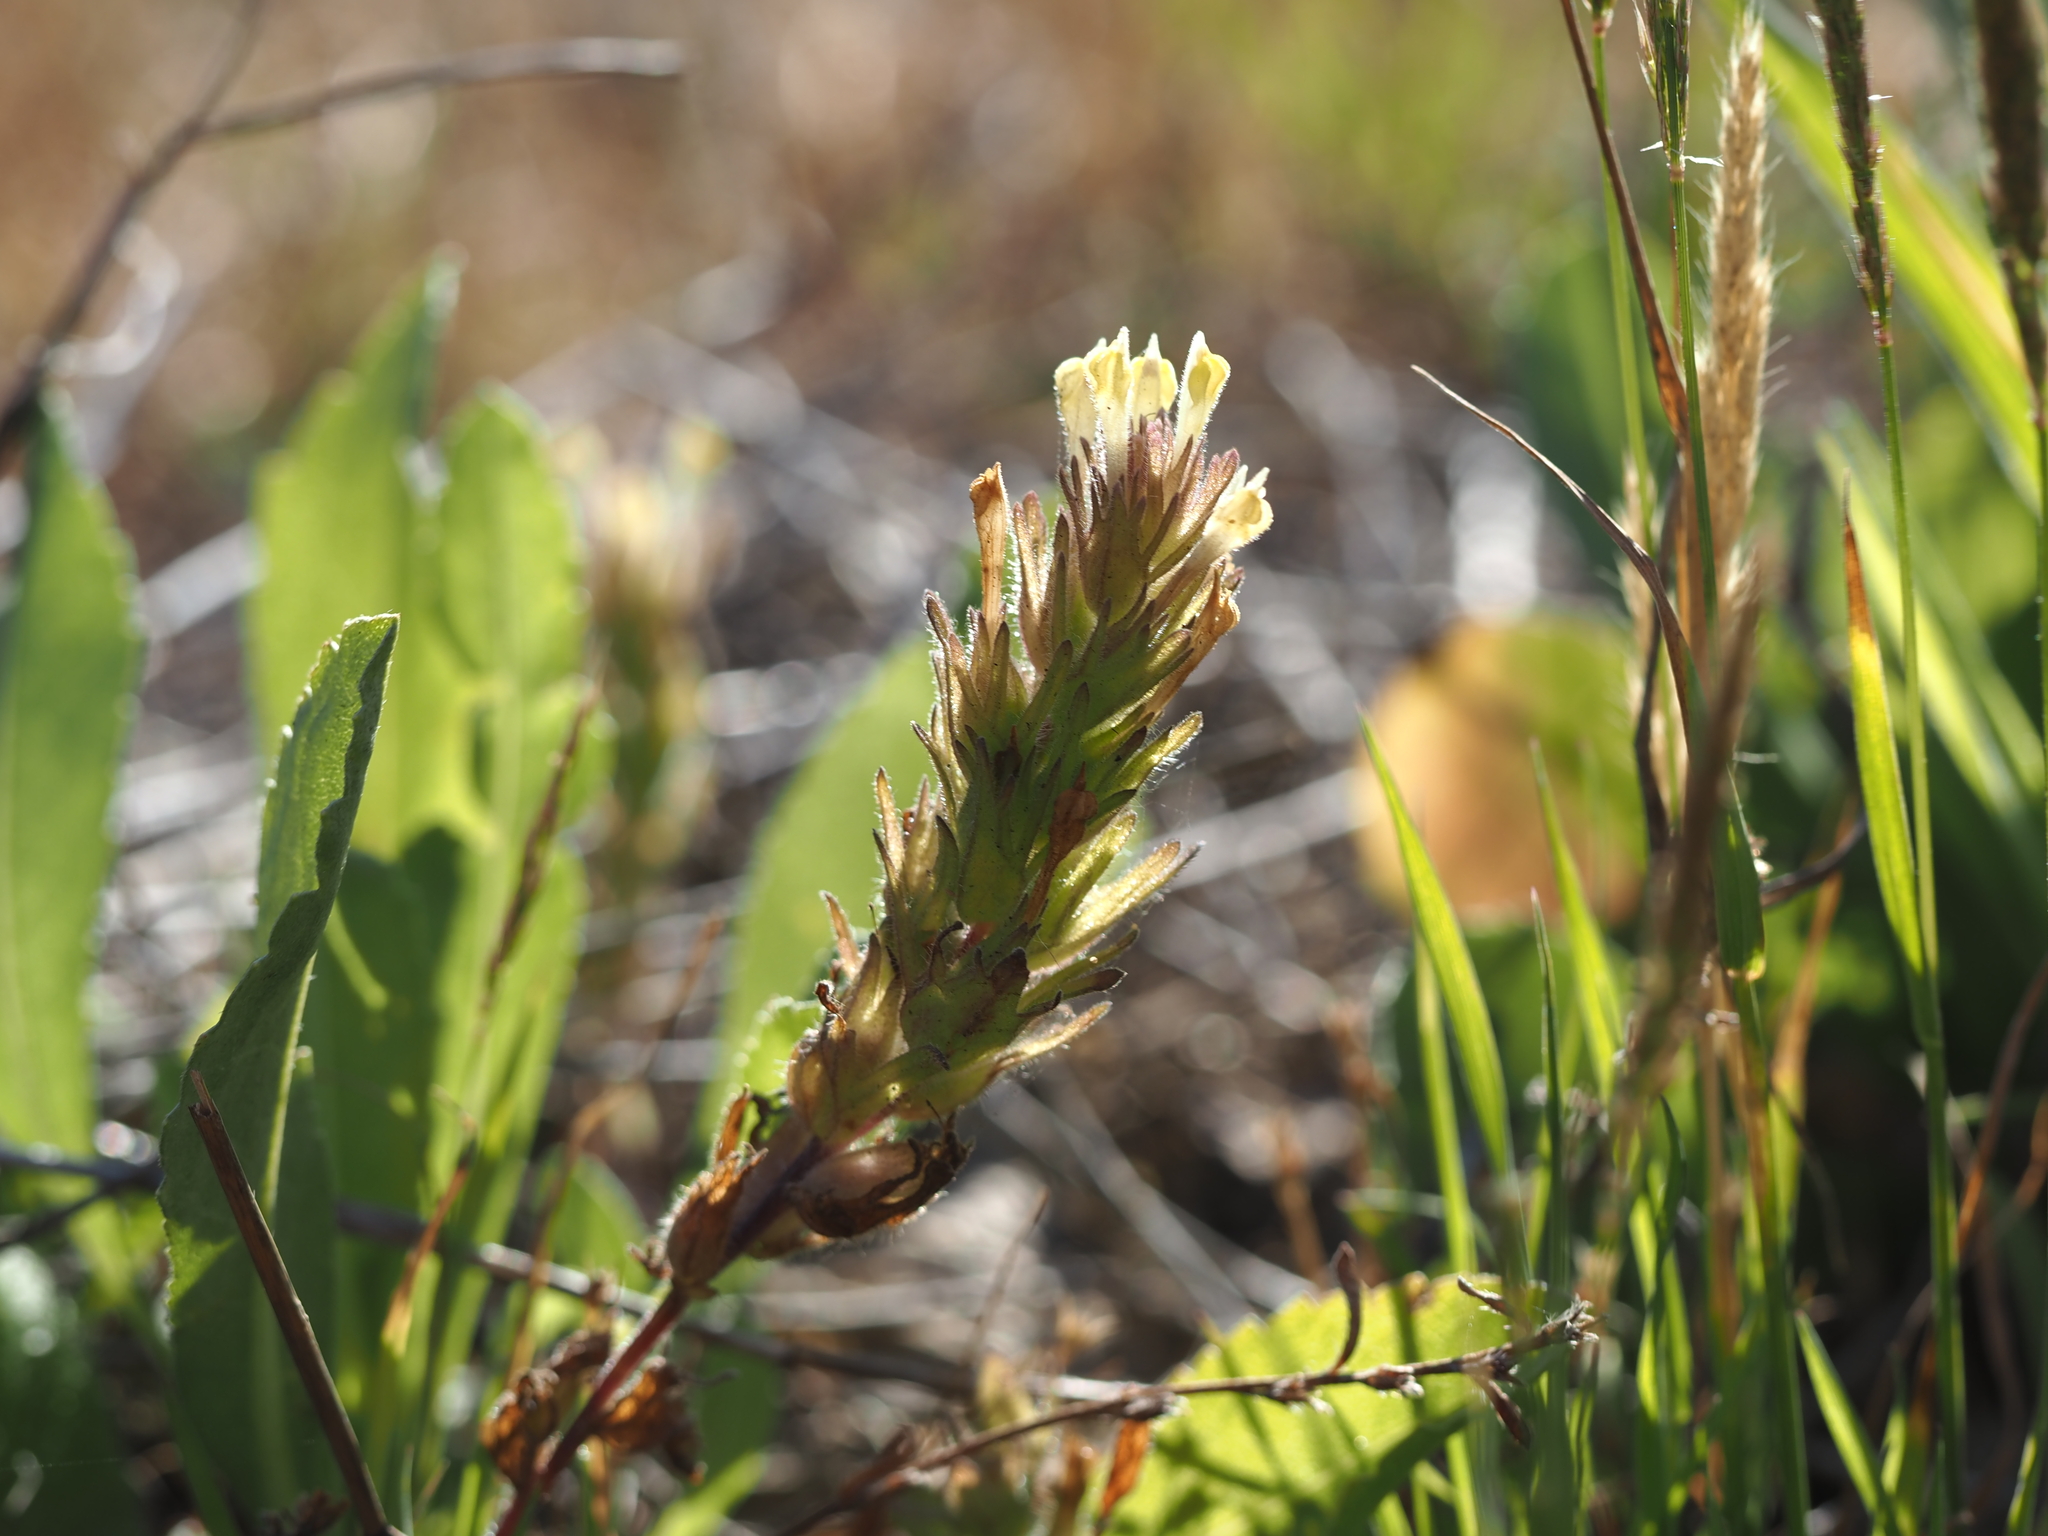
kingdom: Plantae
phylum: Tracheophyta
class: Magnoliopsida
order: Lamiales
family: Orobanchaceae
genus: Castilleja
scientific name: Castilleja victoriae
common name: Victoria paintbrush
